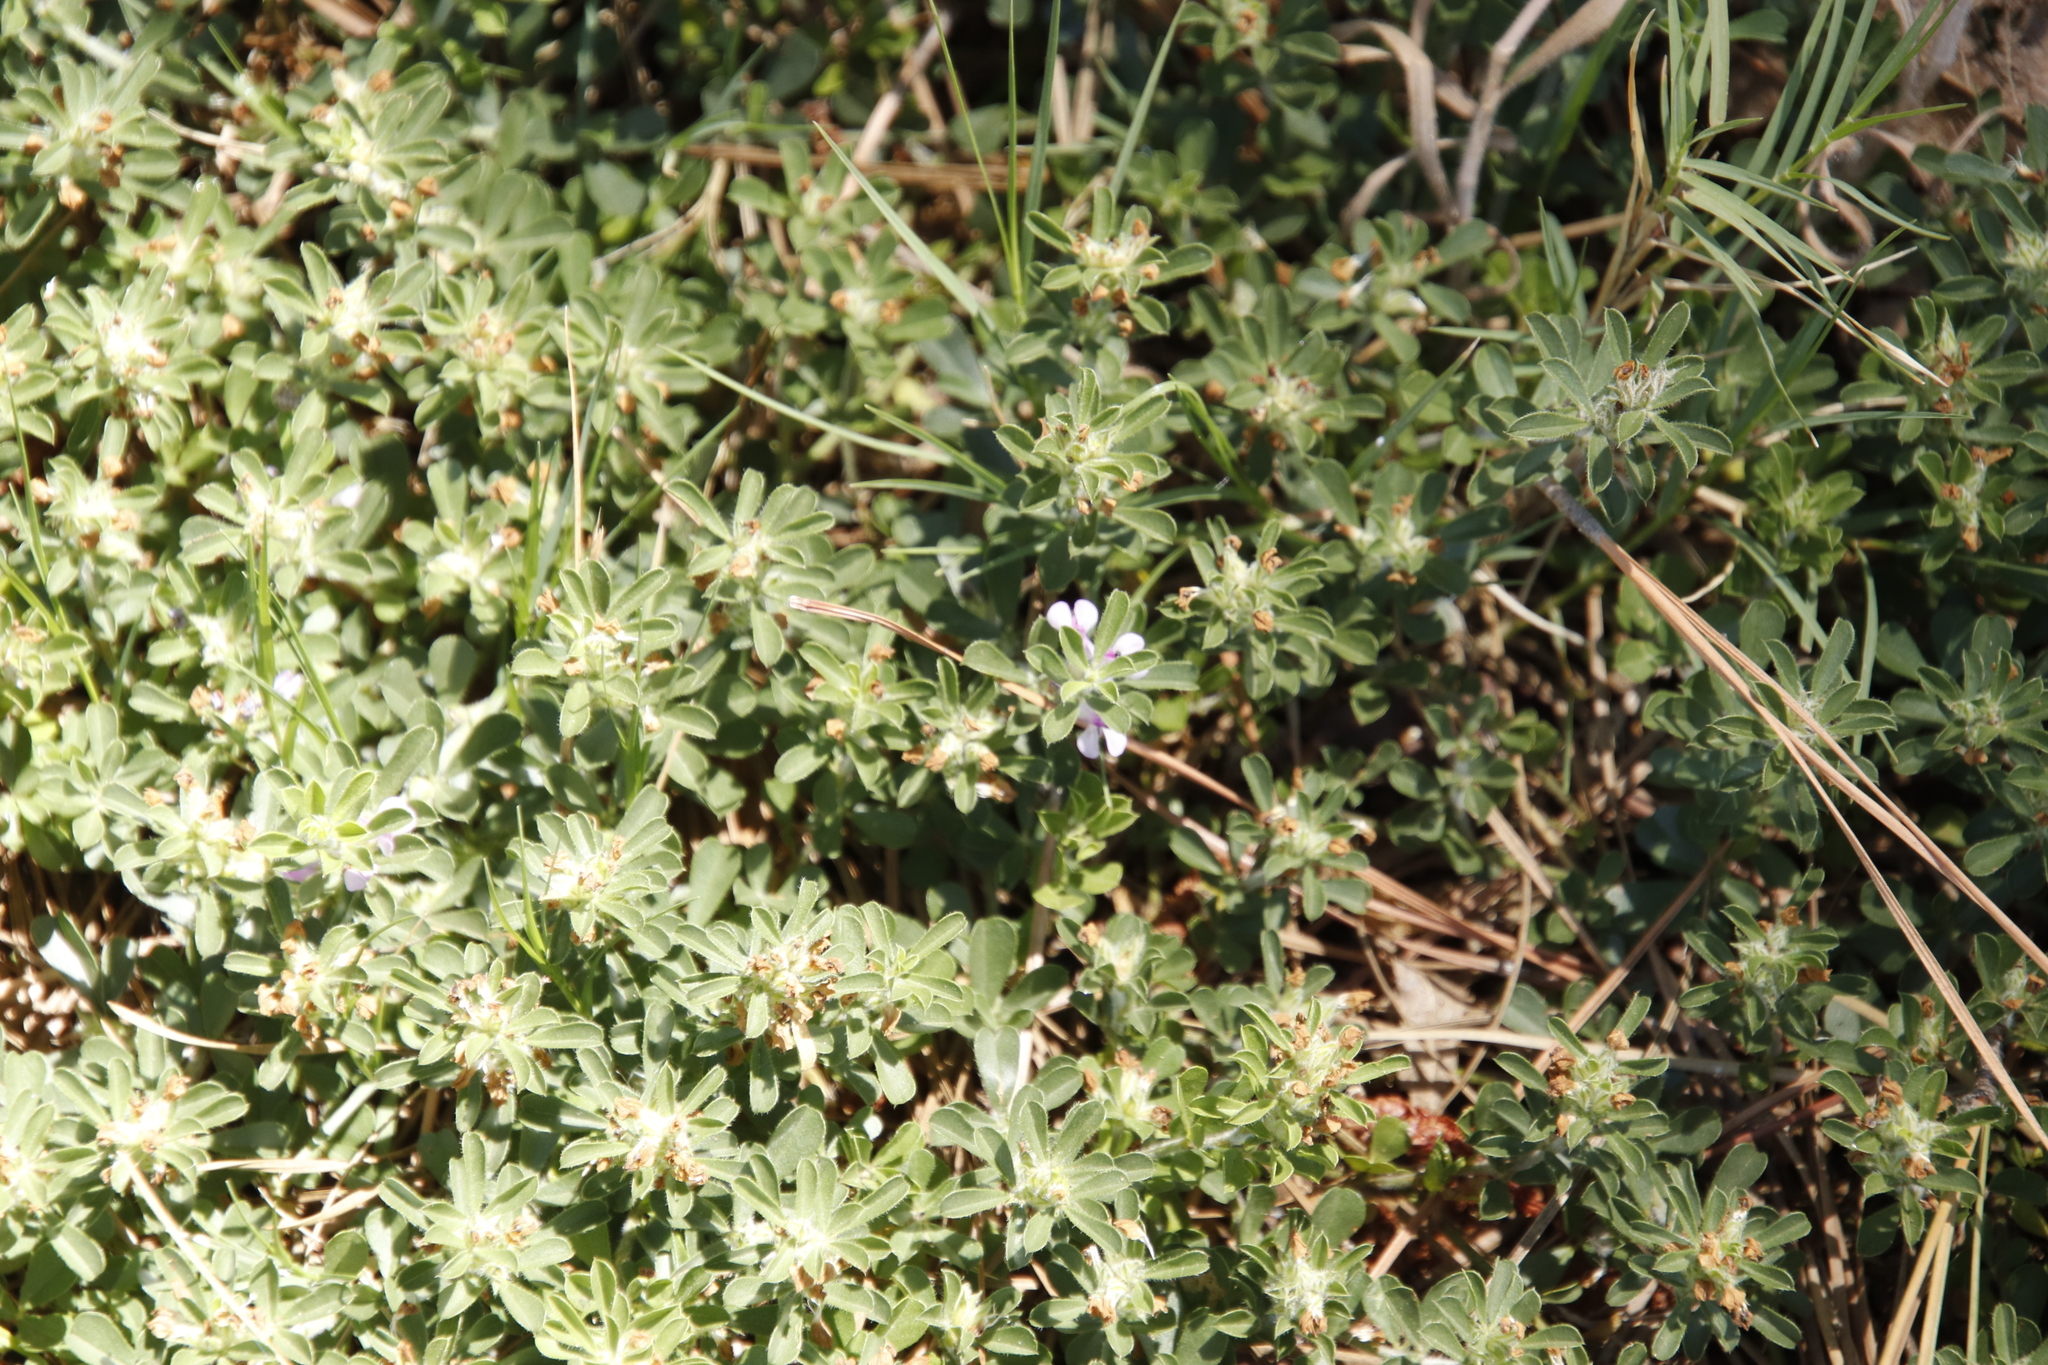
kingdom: Plantae
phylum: Tracheophyta
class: Magnoliopsida
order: Fabales
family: Fabaceae
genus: Psoralea
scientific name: Psoralea
